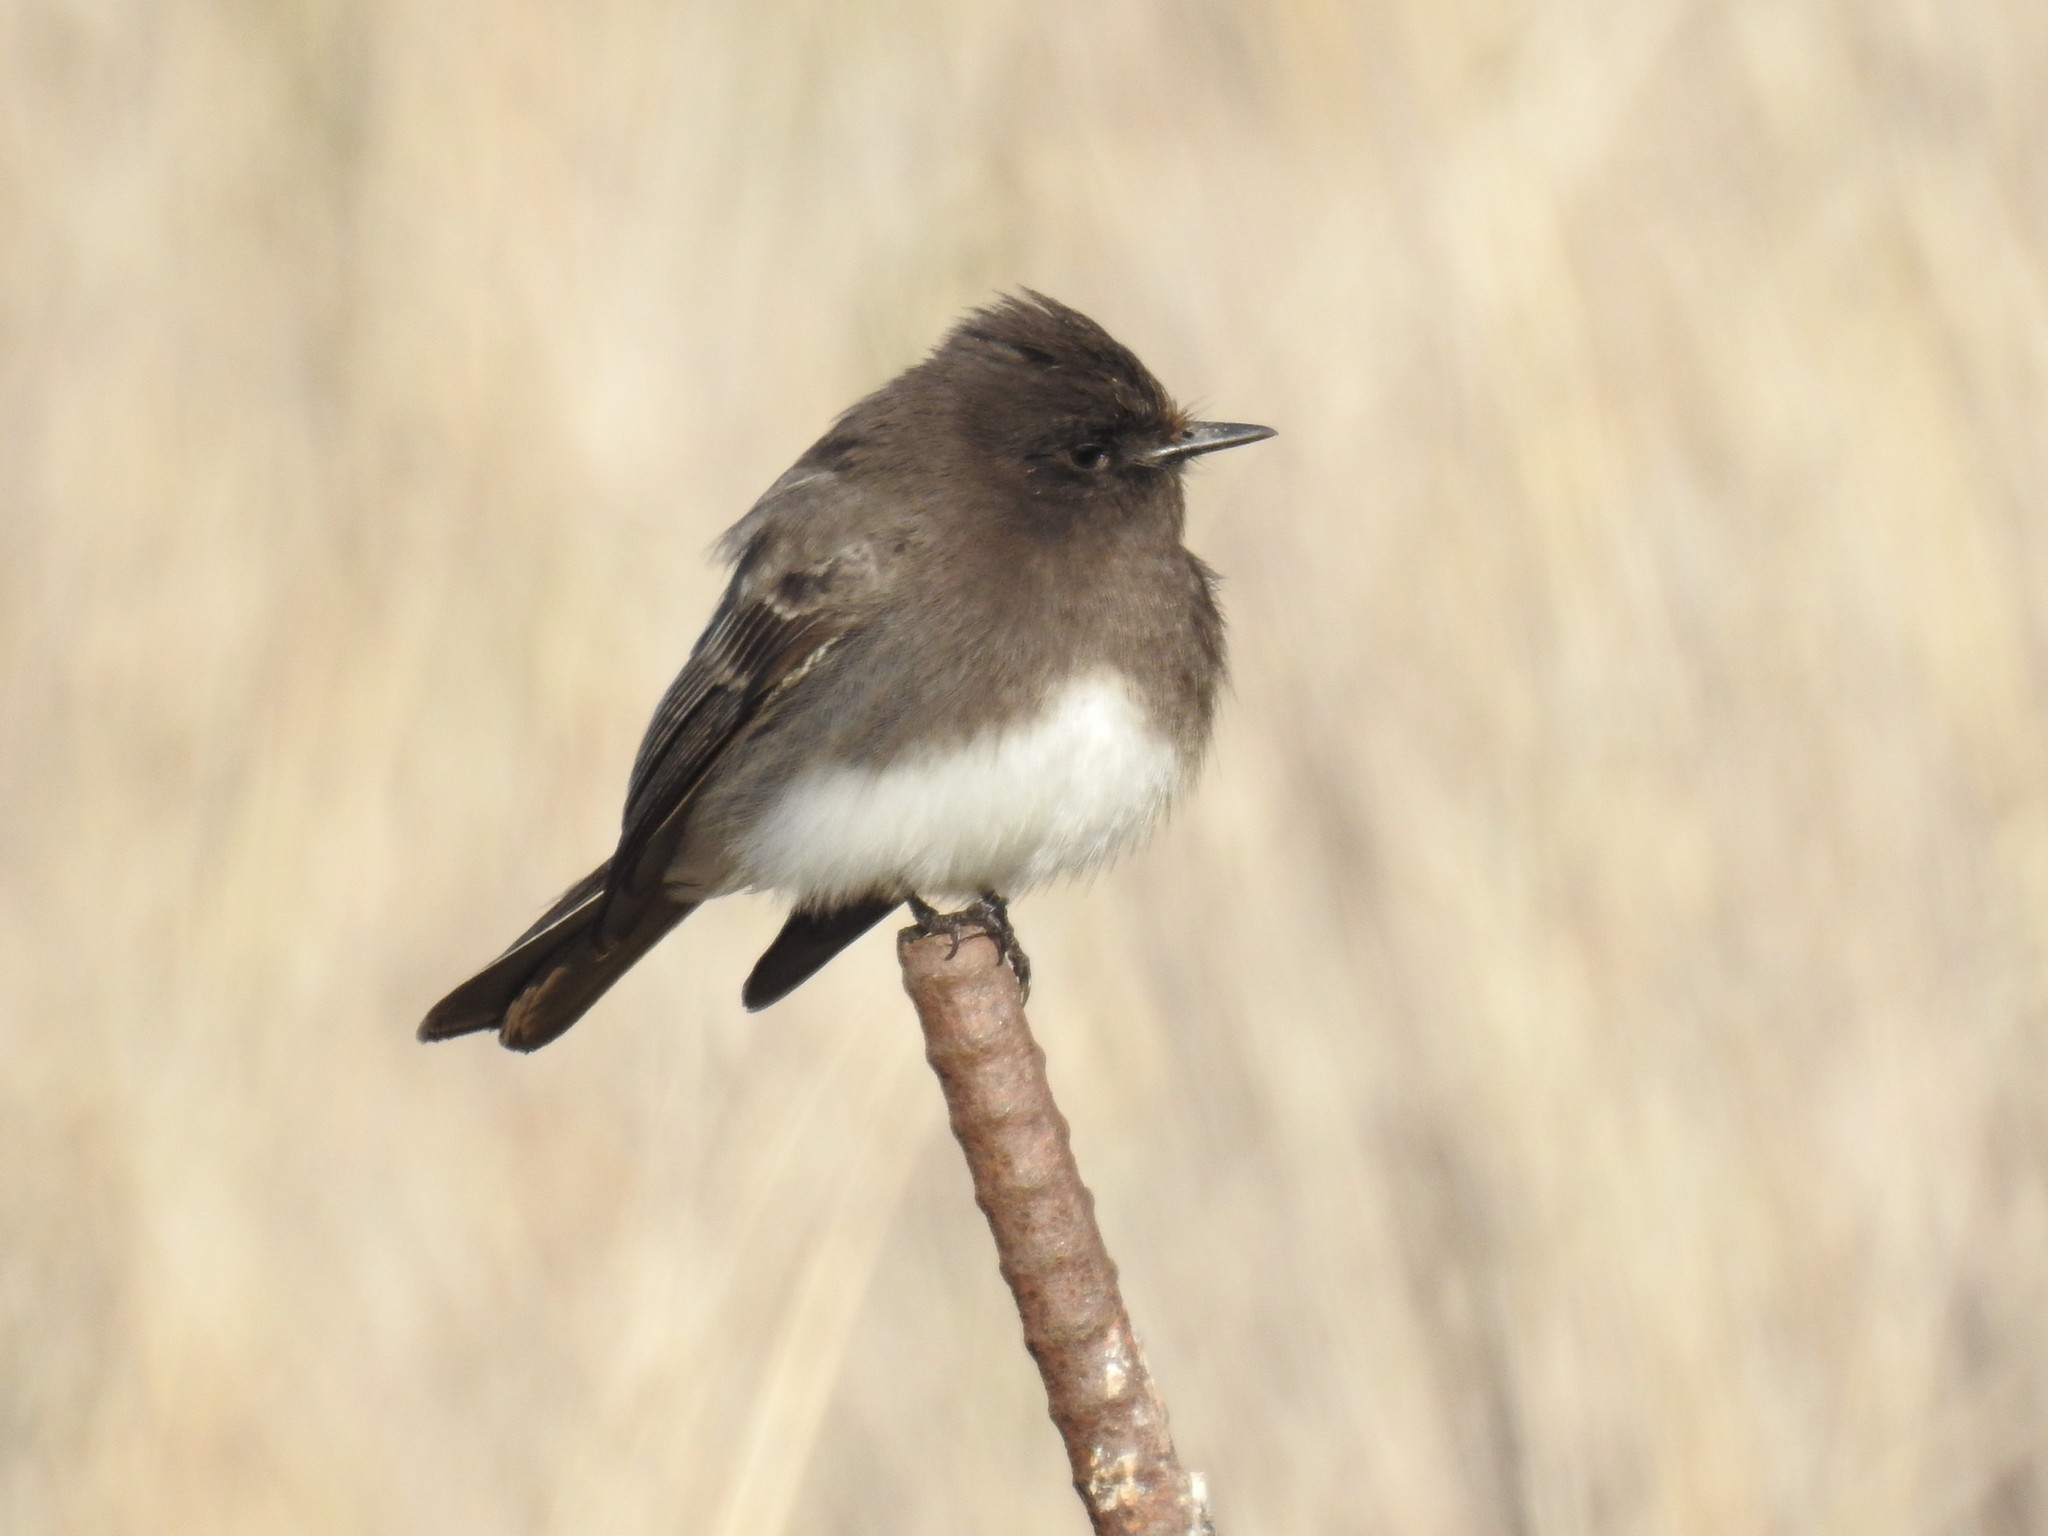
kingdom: Animalia
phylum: Chordata
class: Aves
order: Passeriformes
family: Tyrannidae
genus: Sayornis
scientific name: Sayornis nigricans
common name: Black phoebe
